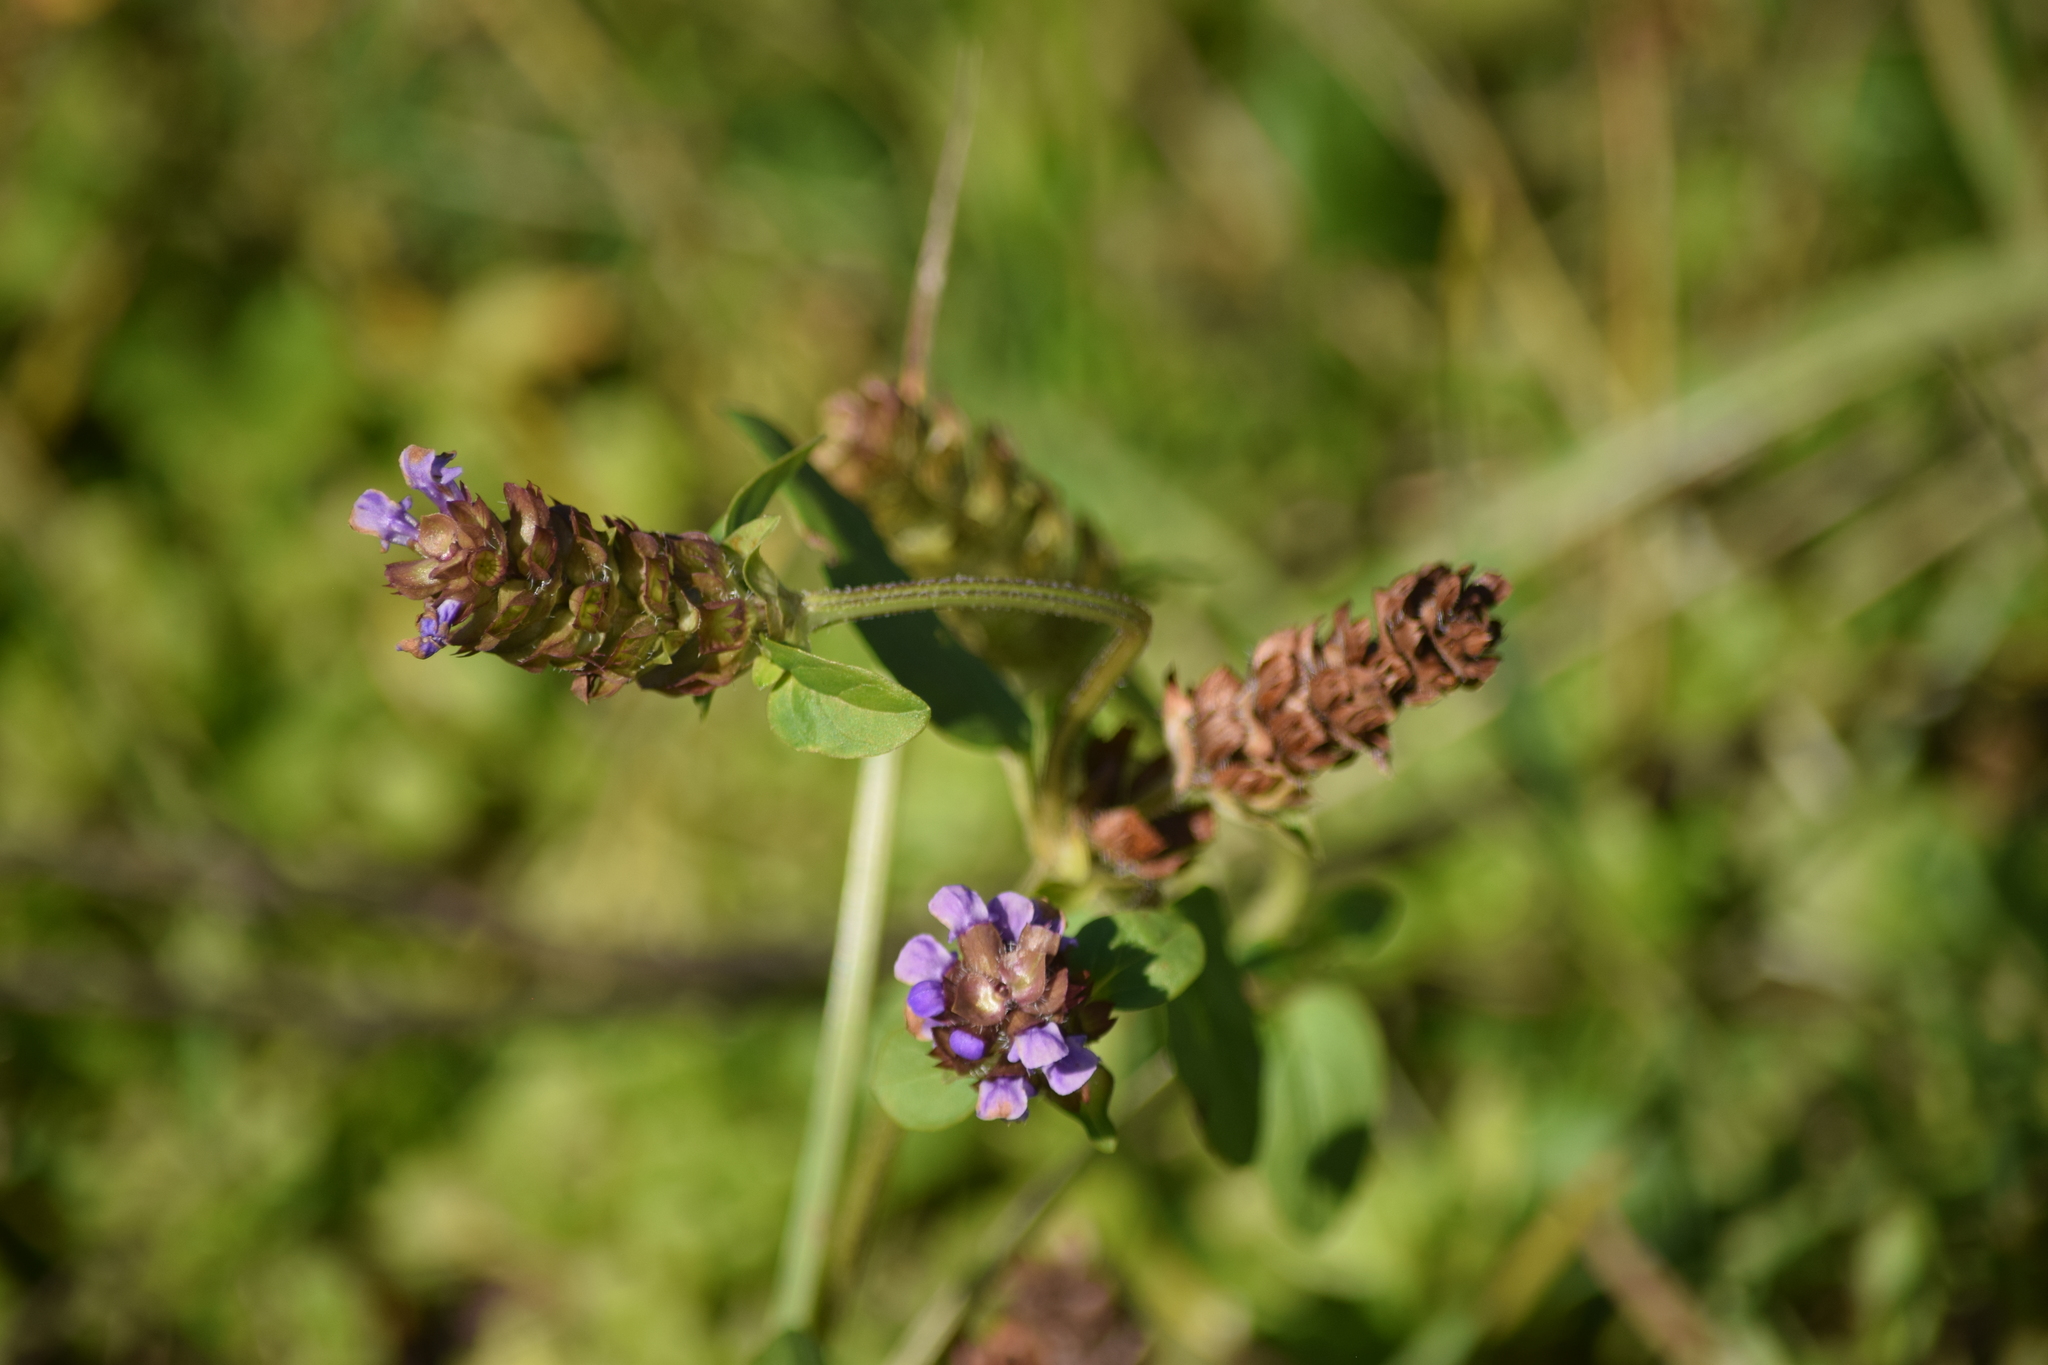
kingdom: Plantae
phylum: Tracheophyta
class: Magnoliopsida
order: Lamiales
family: Lamiaceae
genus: Prunella
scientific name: Prunella vulgaris
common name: Heal-all
